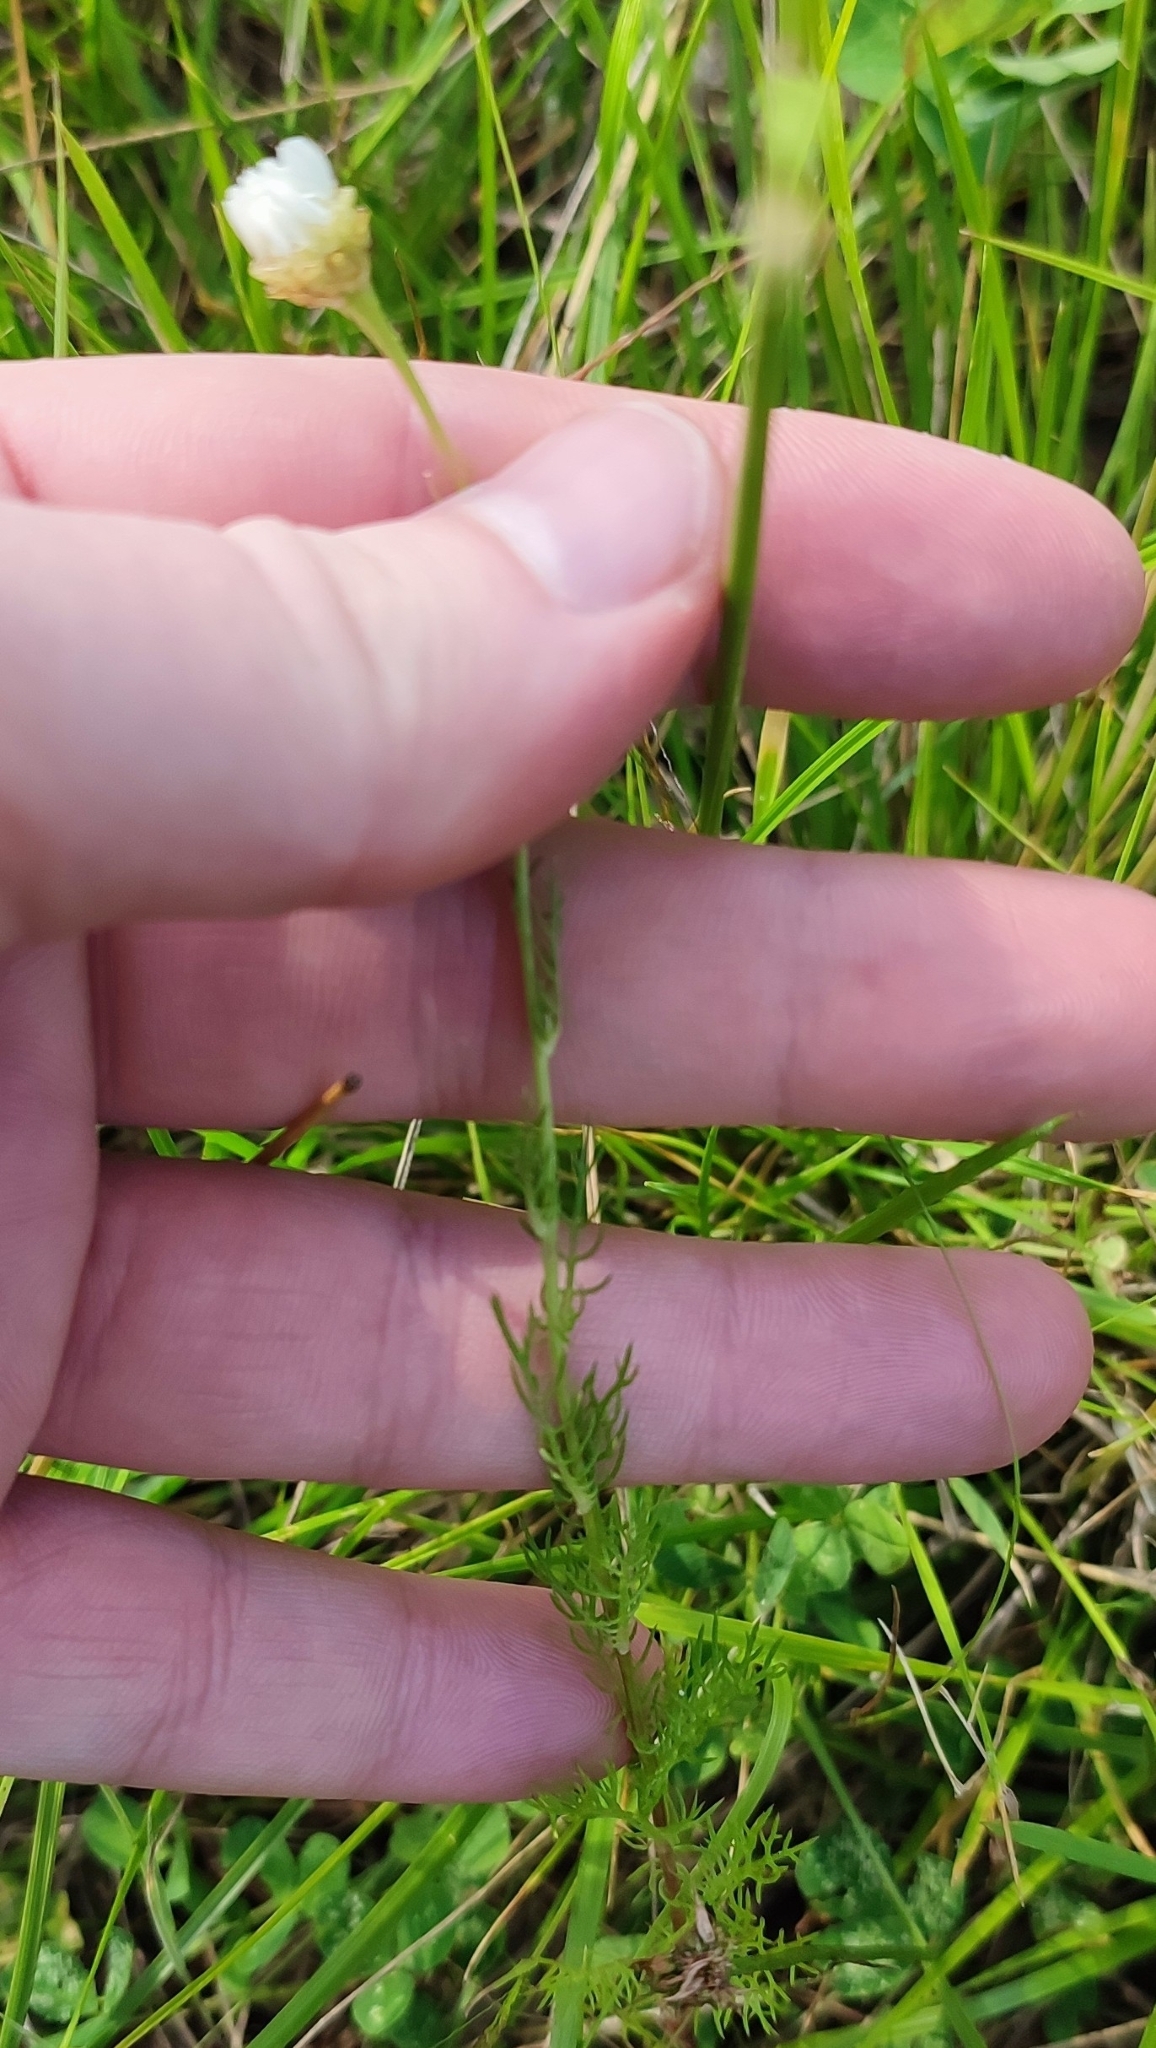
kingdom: Plantae
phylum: Tracheophyta
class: Magnoliopsida
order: Asterales
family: Asteraceae
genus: Tripleurospermum
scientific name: Tripleurospermum inodorum
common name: Scentless mayweed
